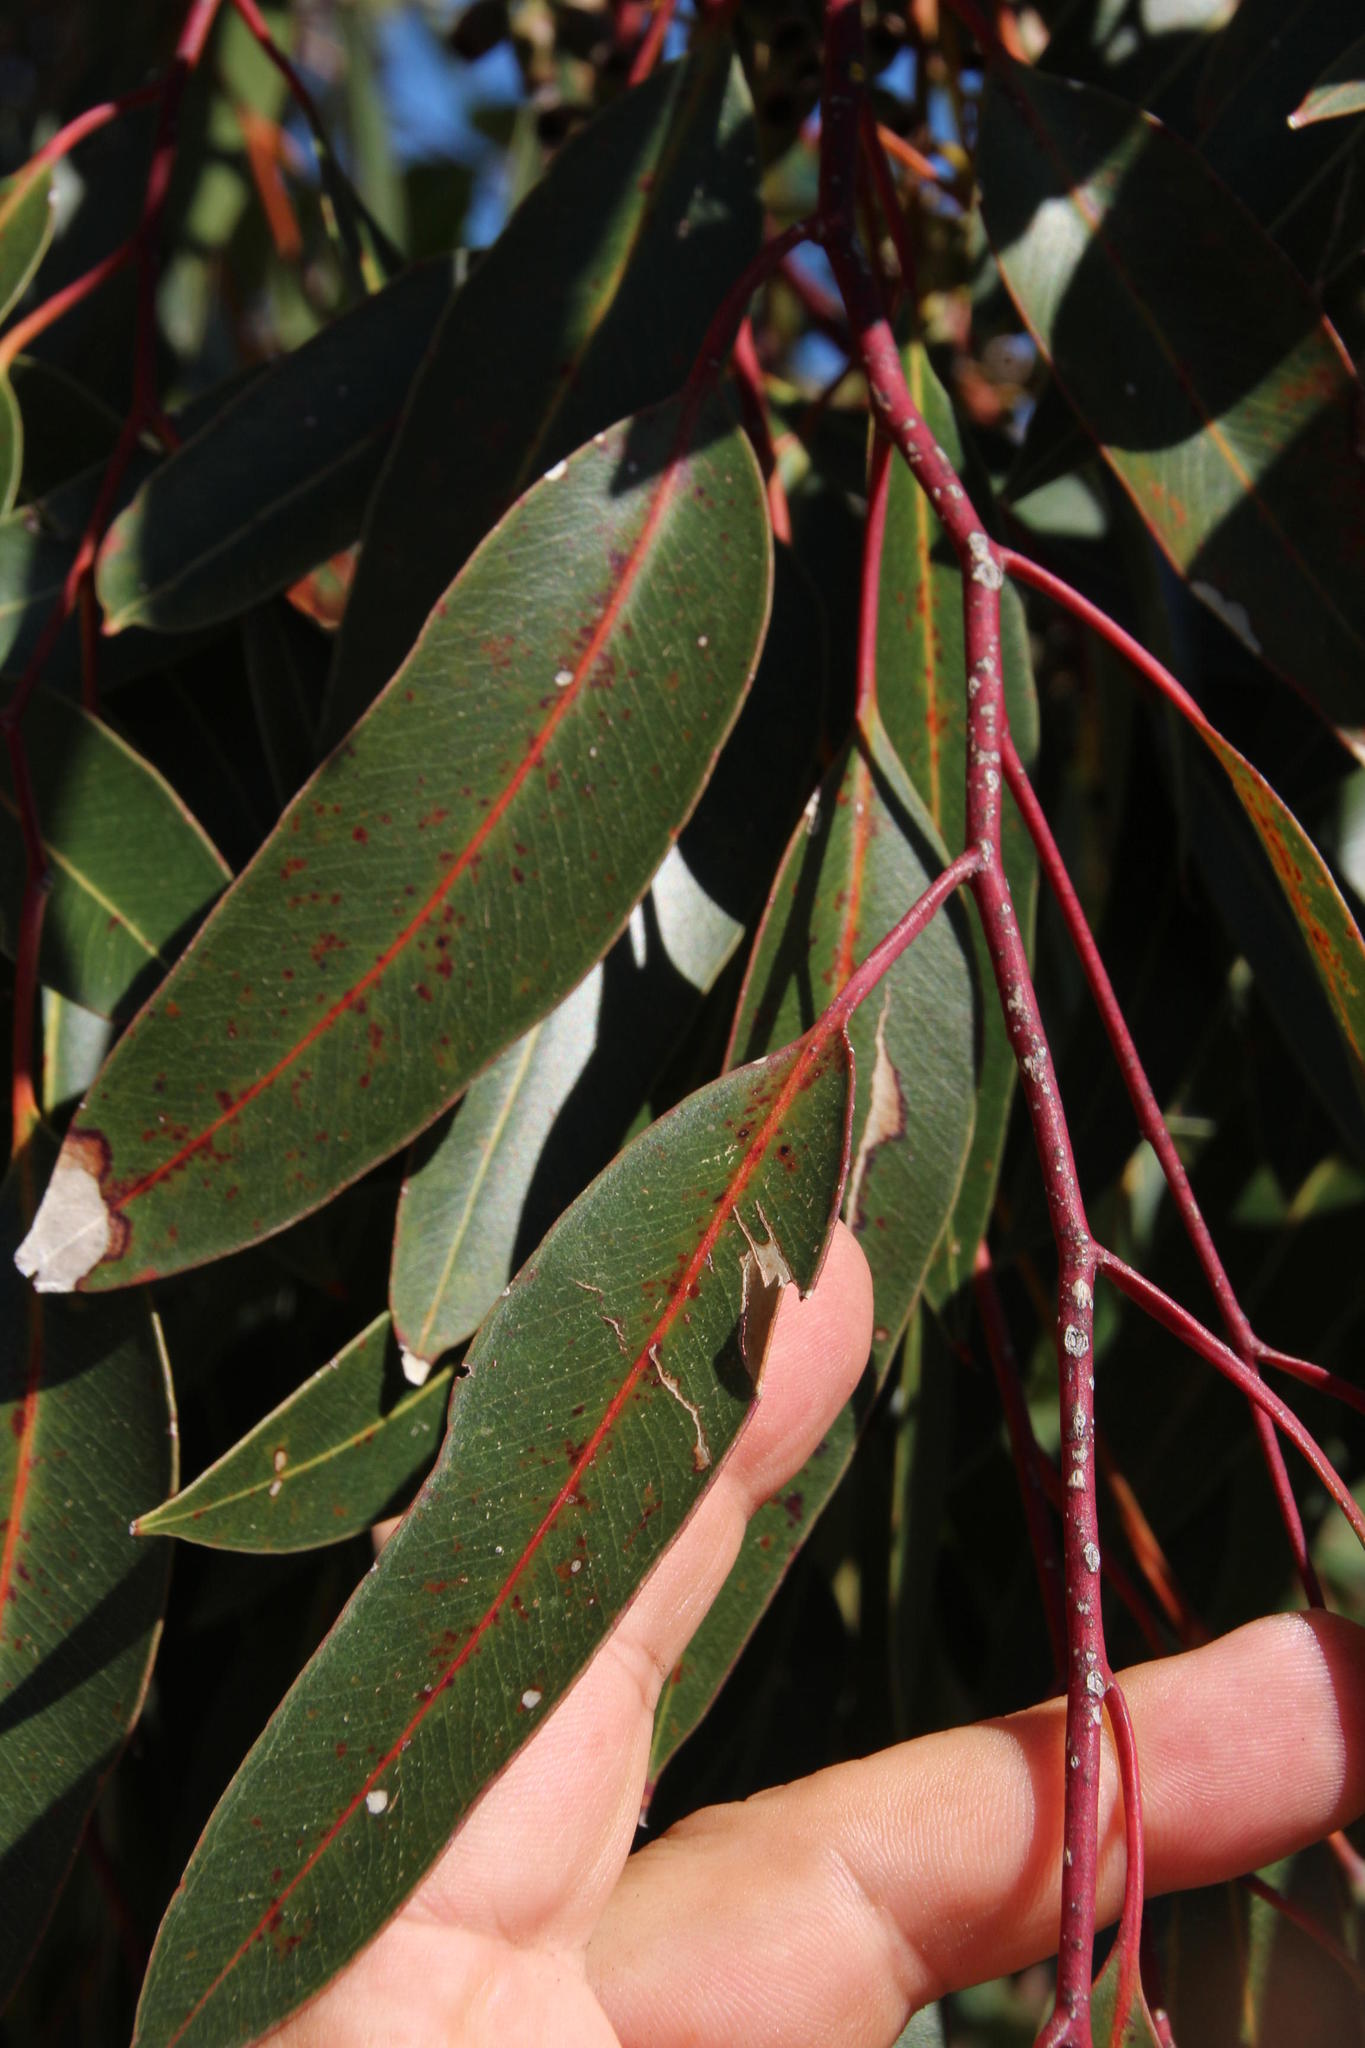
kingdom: Plantae
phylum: Tracheophyta
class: Magnoliopsida
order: Myrtales
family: Myrtaceae
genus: Eucalyptus
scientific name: Eucalyptus cladocalyx
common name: Sugargum
